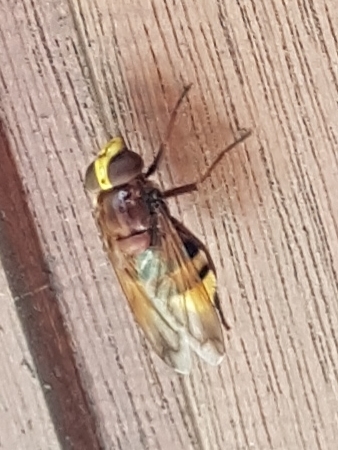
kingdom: Animalia
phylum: Arthropoda
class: Insecta
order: Diptera
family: Syrphidae
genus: Volucella
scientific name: Volucella zonaria
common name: Hornet hoverfly
